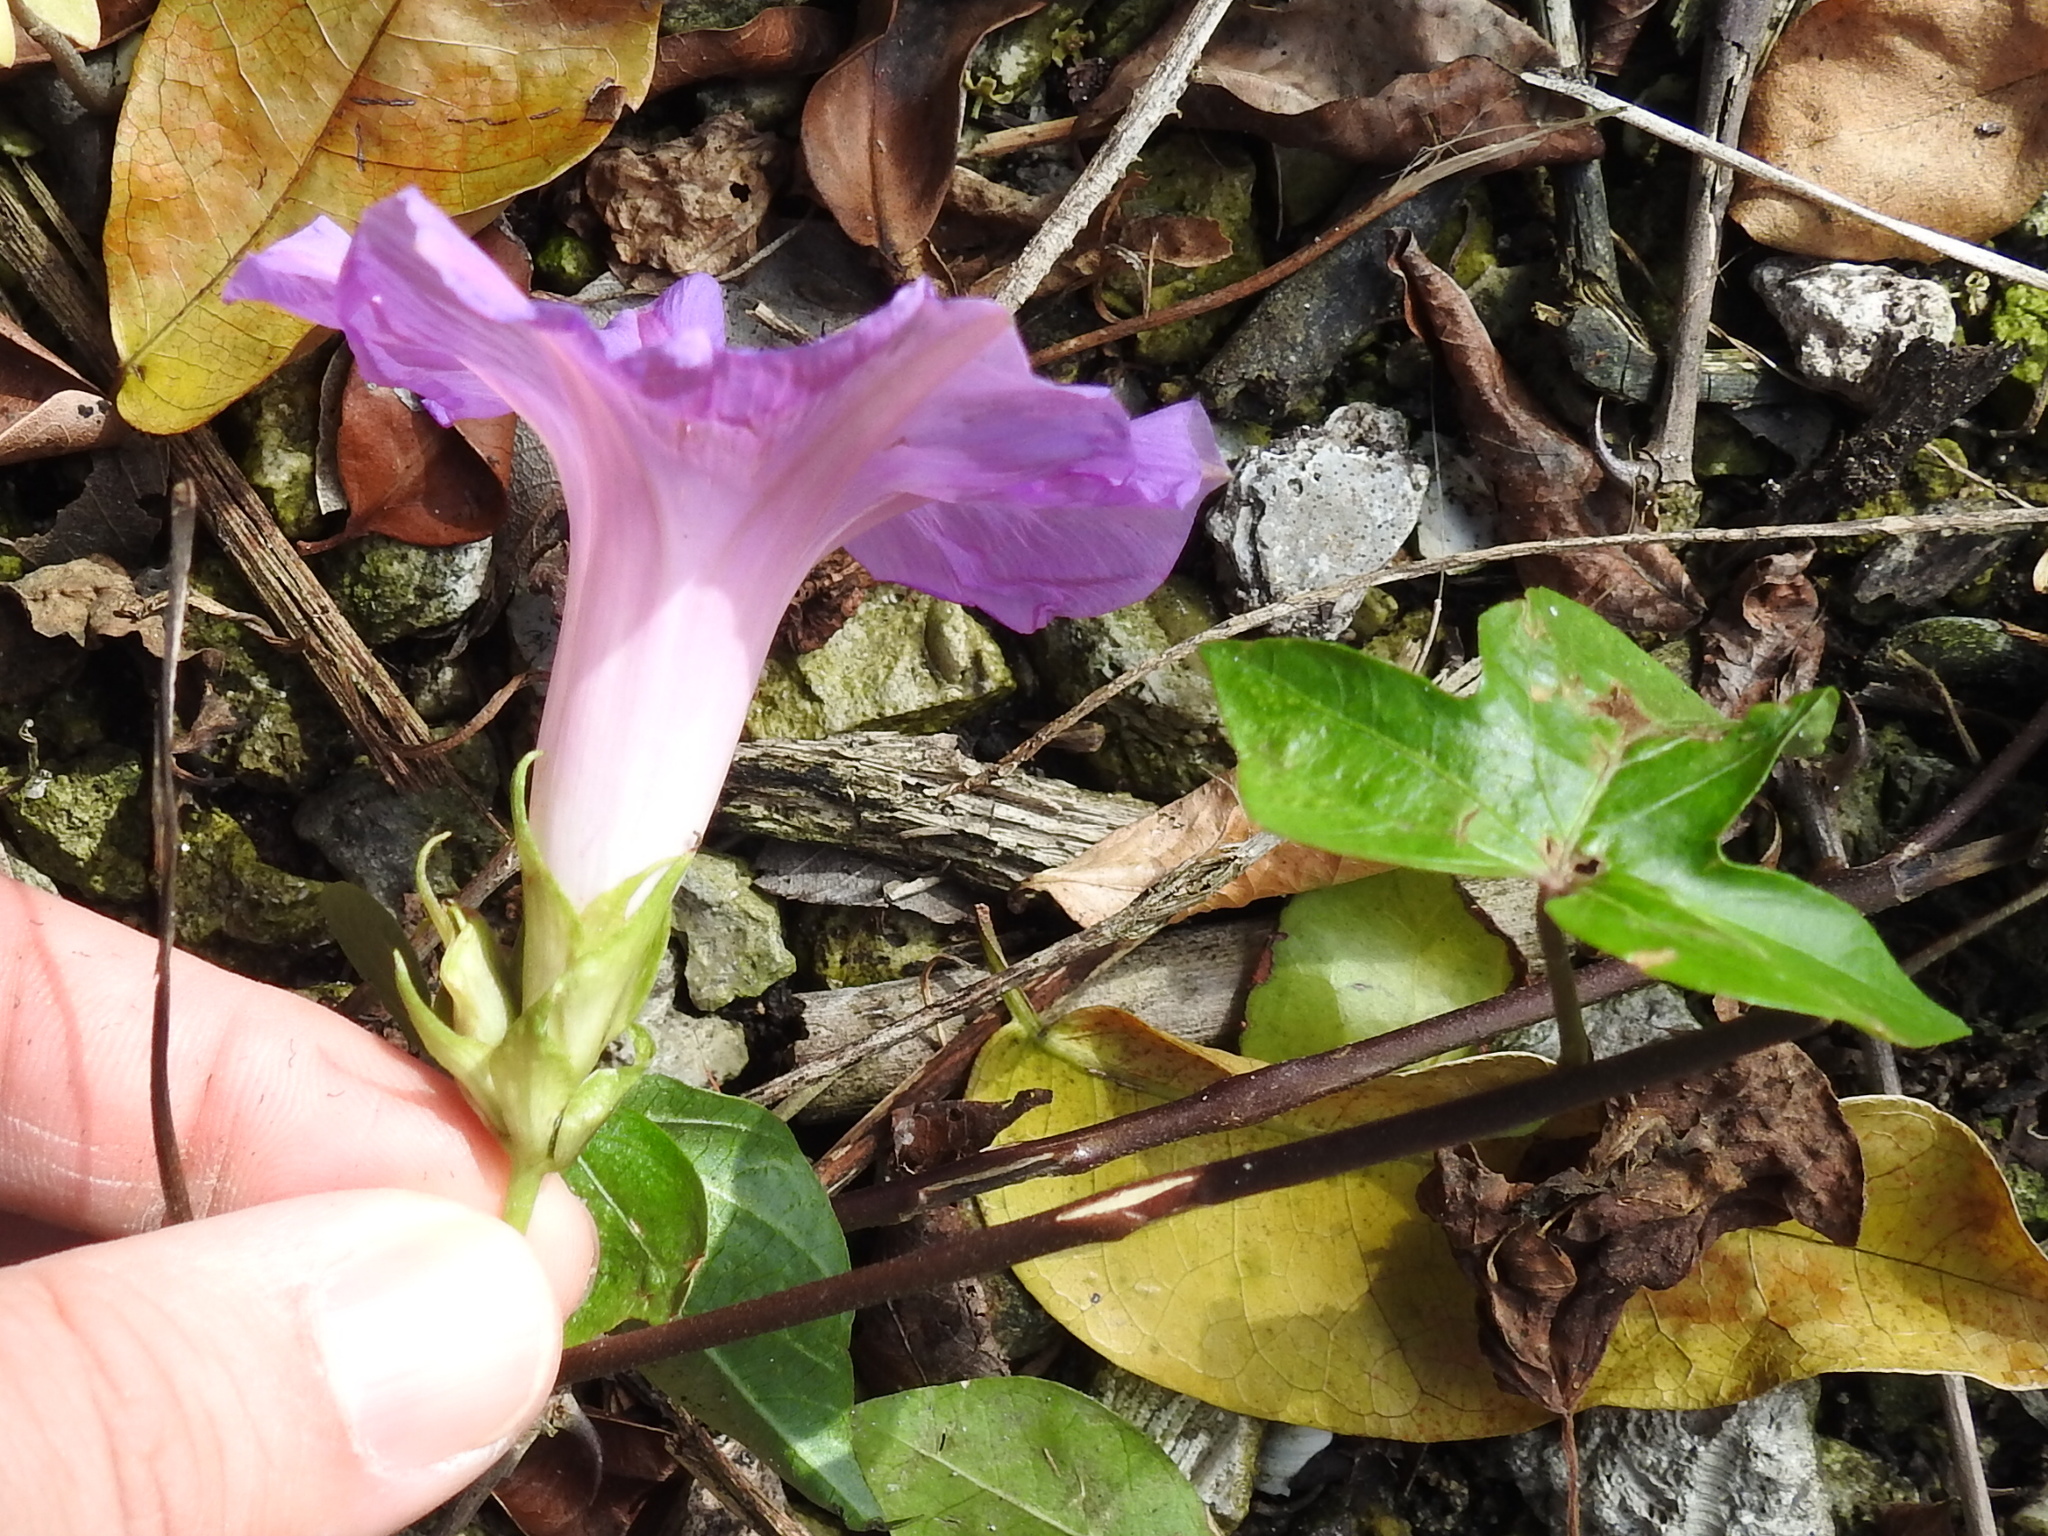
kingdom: Plantae
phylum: Tracheophyta
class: Magnoliopsida
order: Solanales
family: Convolvulaceae
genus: Ipomoea
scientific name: Ipomoea indica
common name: Blue dawnflower
